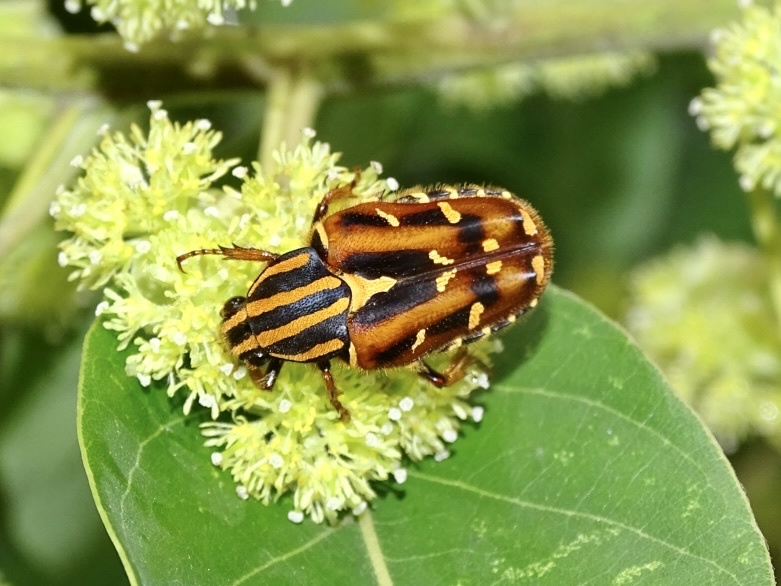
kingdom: Animalia
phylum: Arthropoda
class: Insecta
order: Coleoptera
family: Scarabaeidae
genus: Euselates
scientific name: Euselates magna
